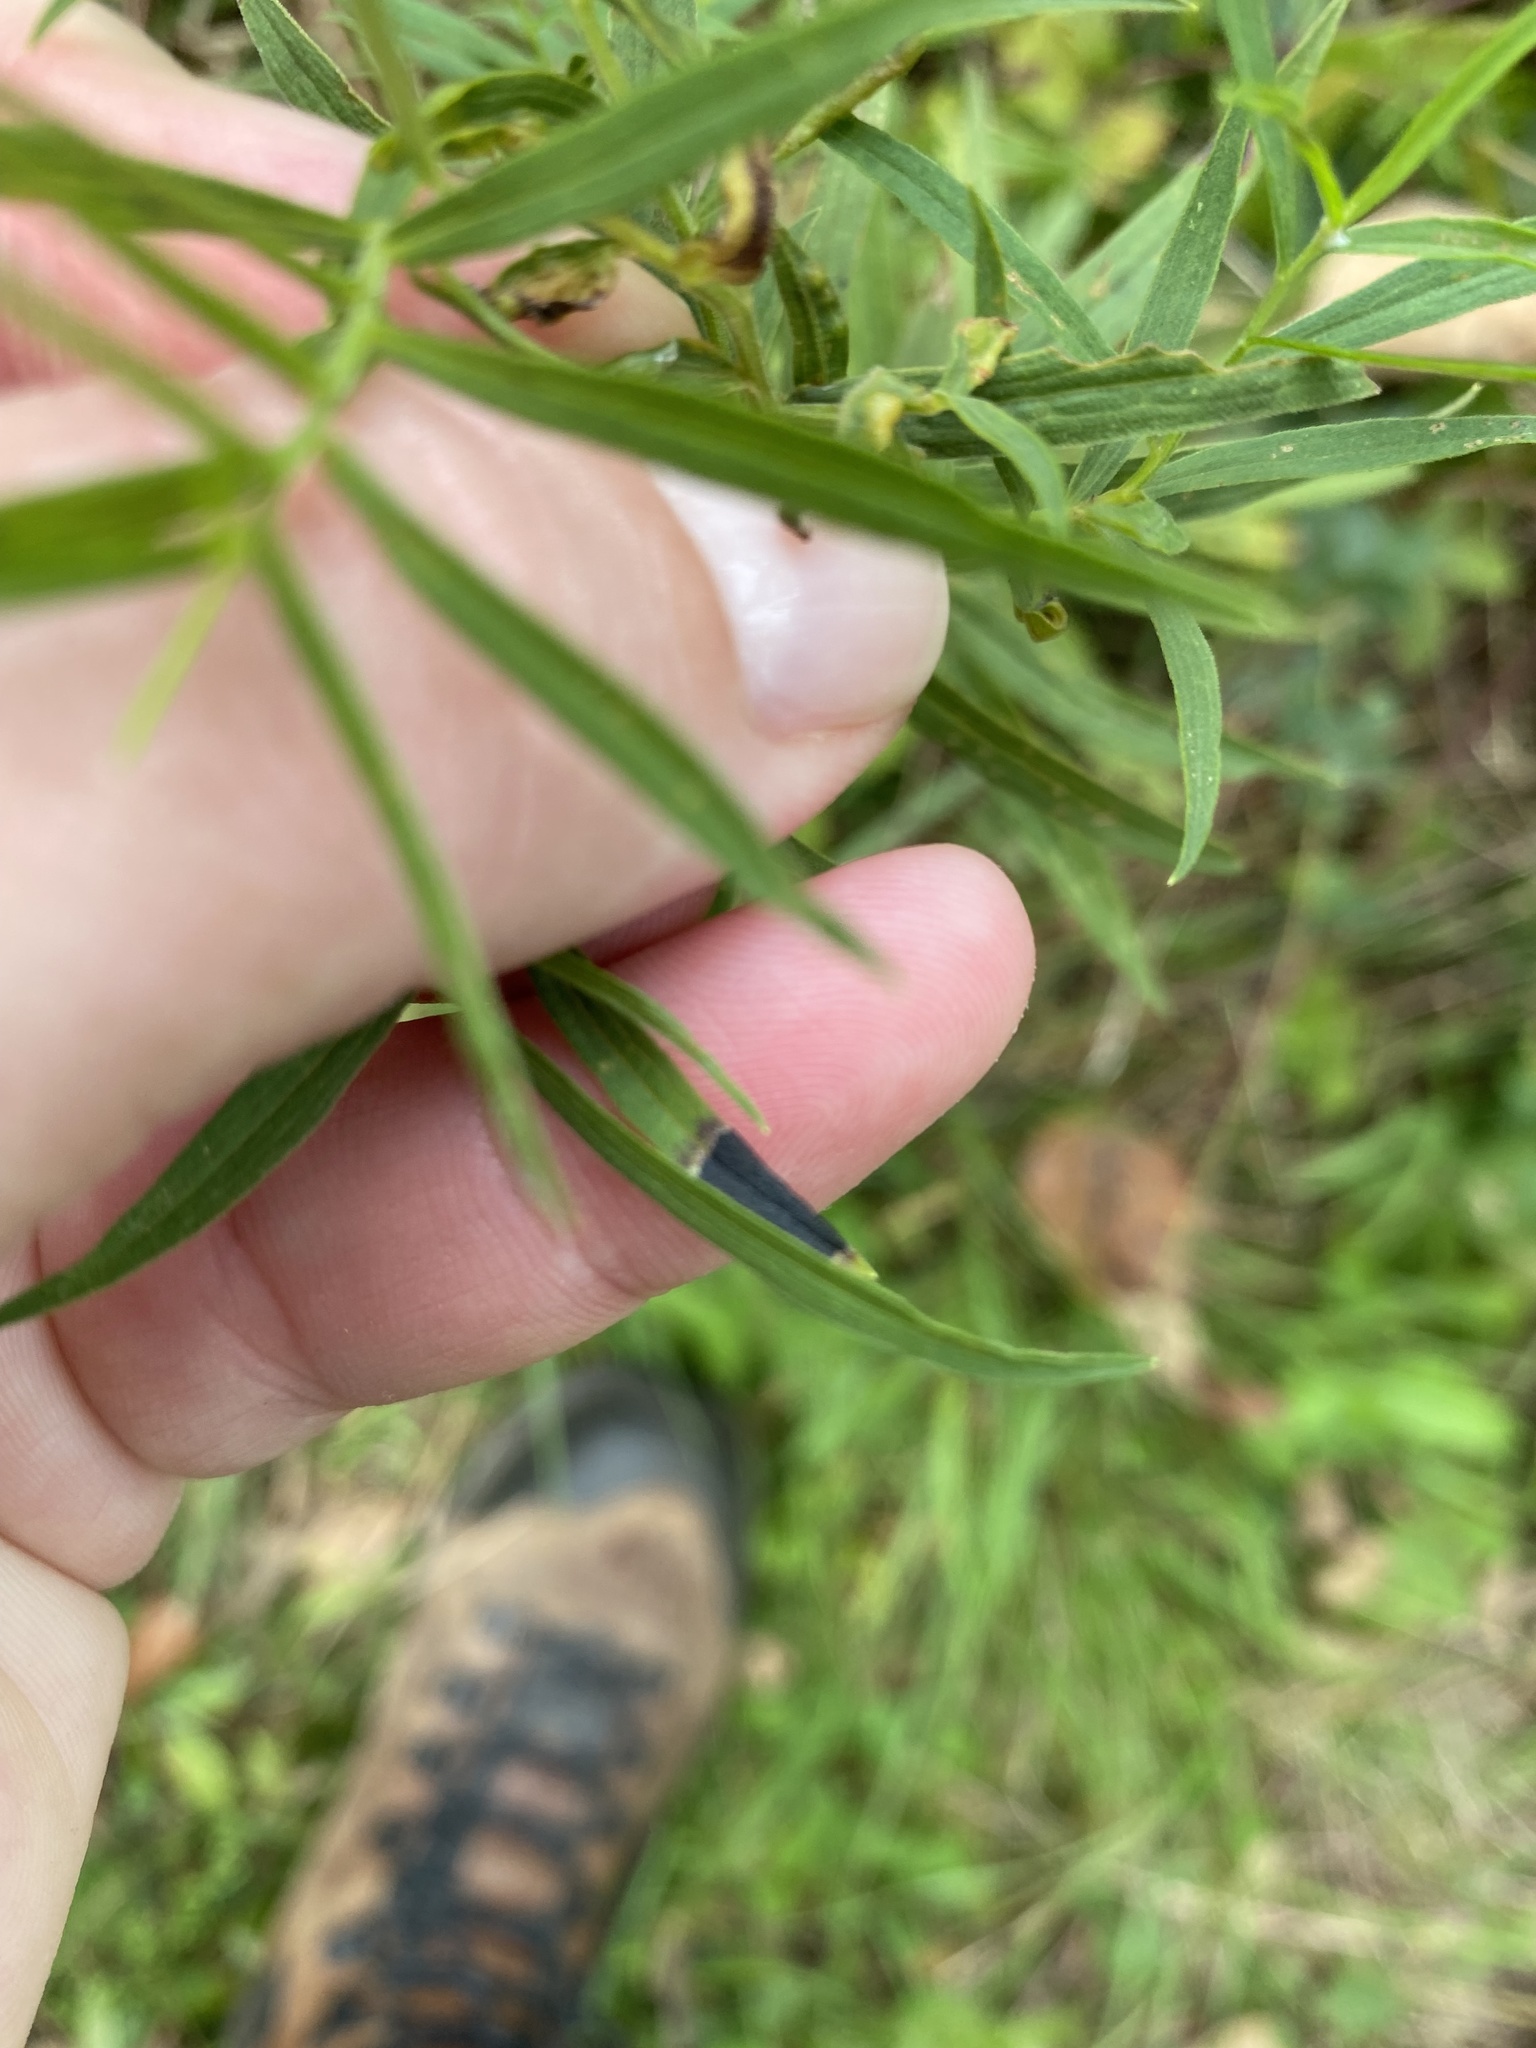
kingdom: Animalia
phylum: Arthropoda
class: Insecta
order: Diptera
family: Cecidomyiidae
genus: Asteromyia
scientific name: Asteromyia euthamiae
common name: Euthamia leaf gall midge
